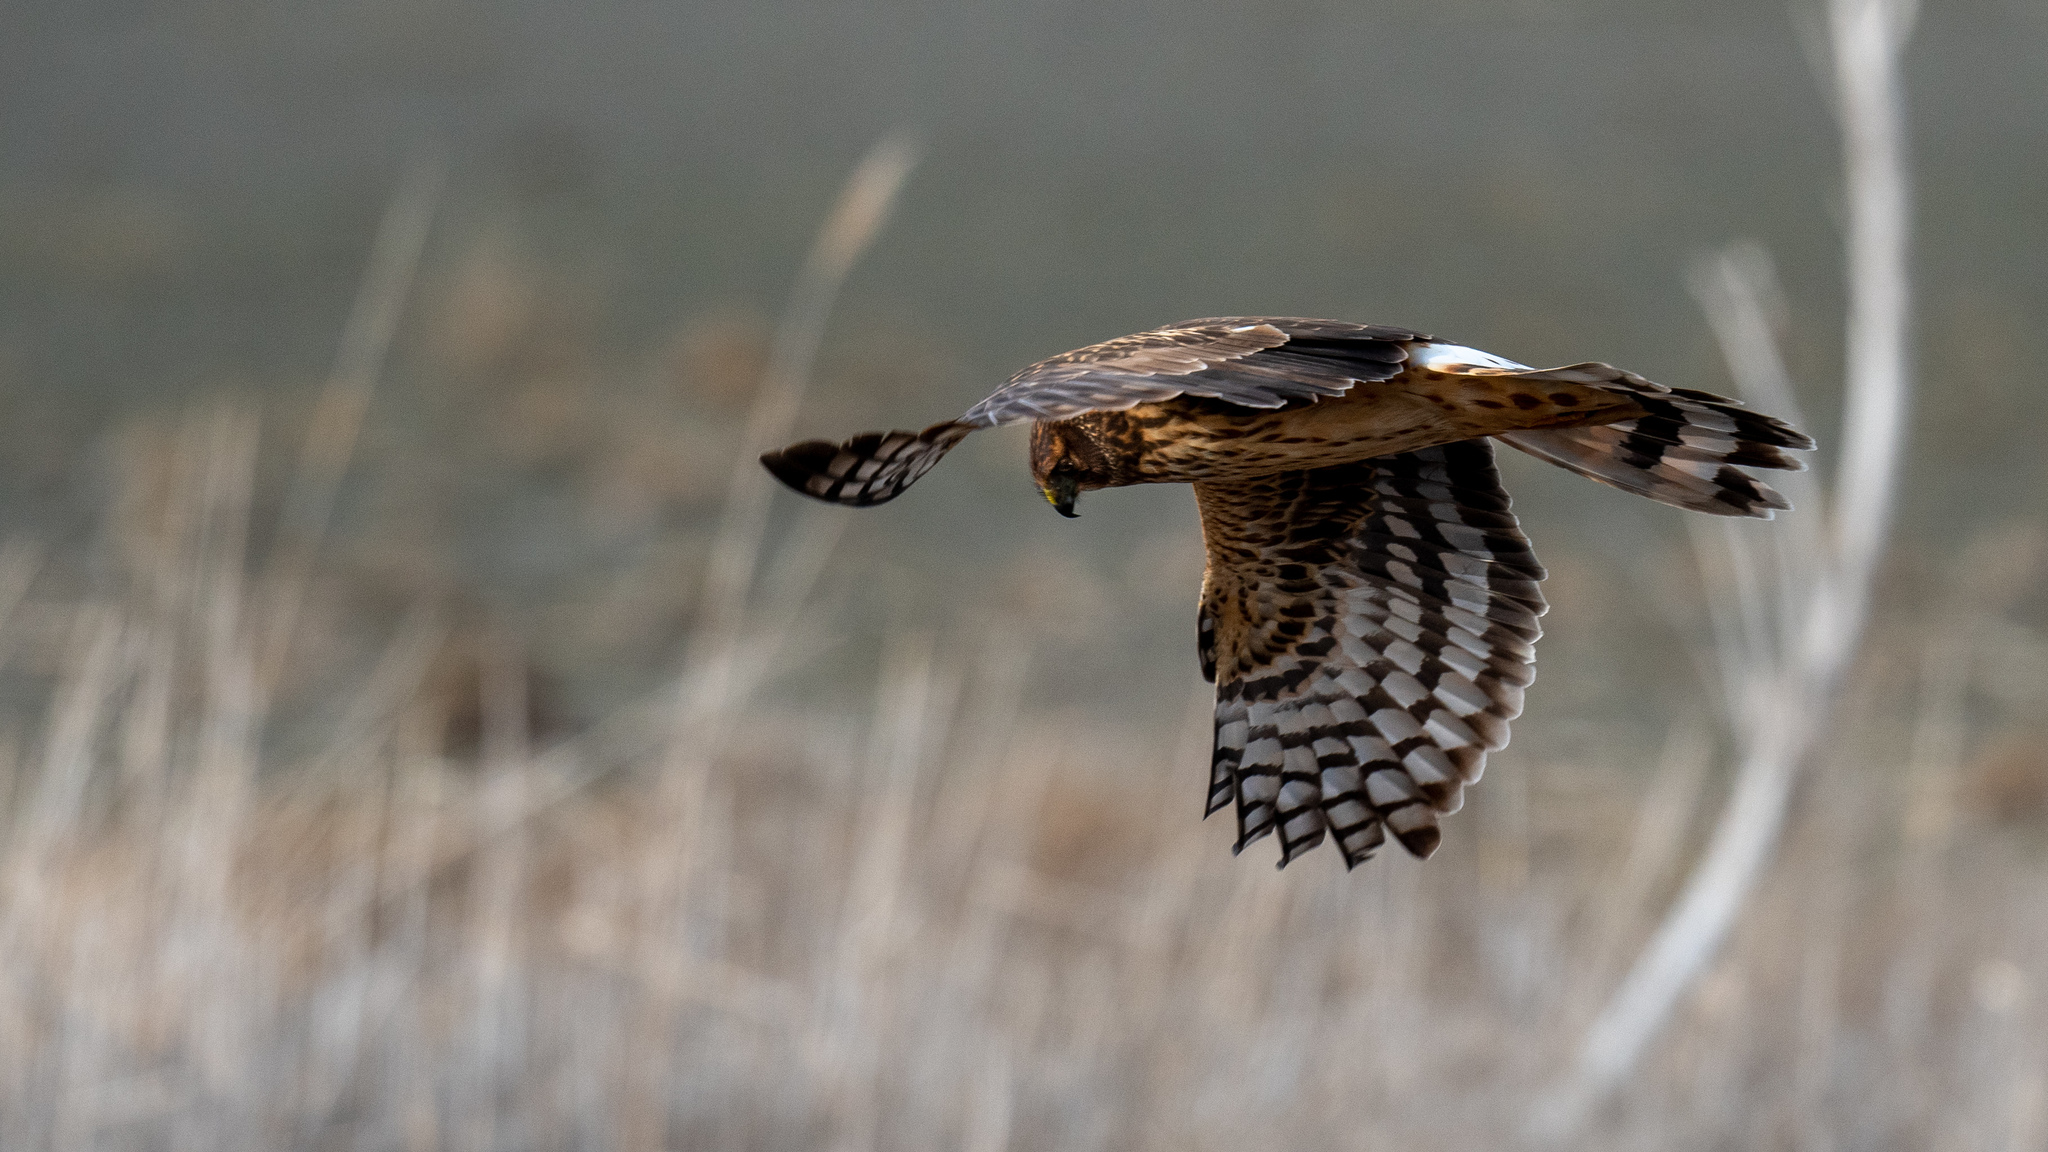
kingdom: Animalia
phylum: Chordata
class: Aves
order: Accipitriformes
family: Accipitridae
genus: Circus
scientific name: Circus cyaneus
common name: Hen harrier
